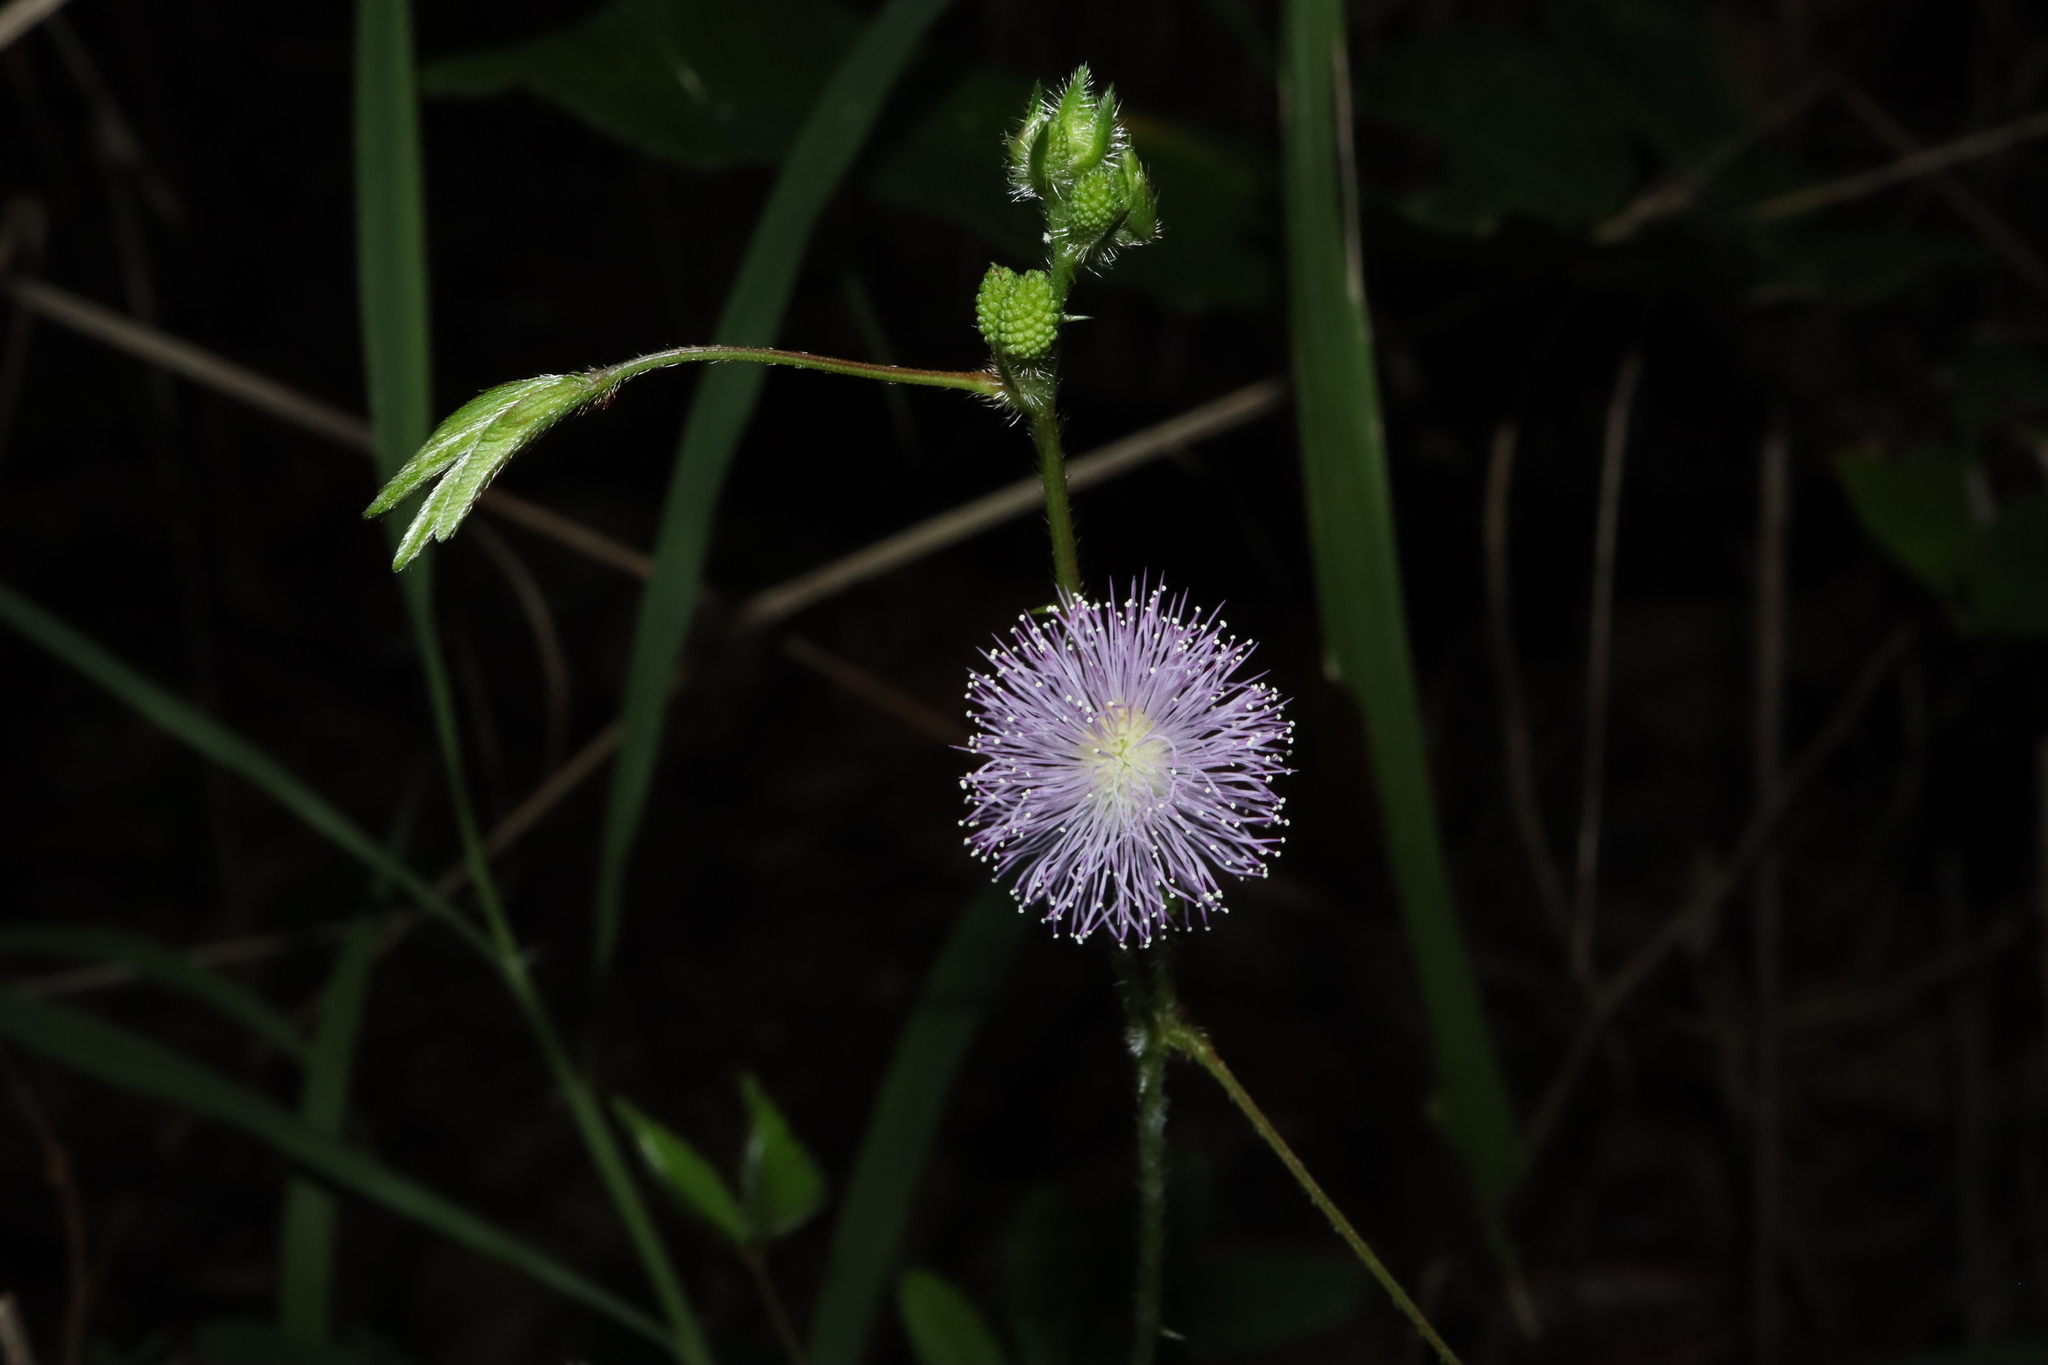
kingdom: Plantae
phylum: Tracheophyta
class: Magnoliopsida
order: Fabales
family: Fabaceae
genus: Mimosa
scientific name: Mimosa pudica
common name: Sensitive plant
